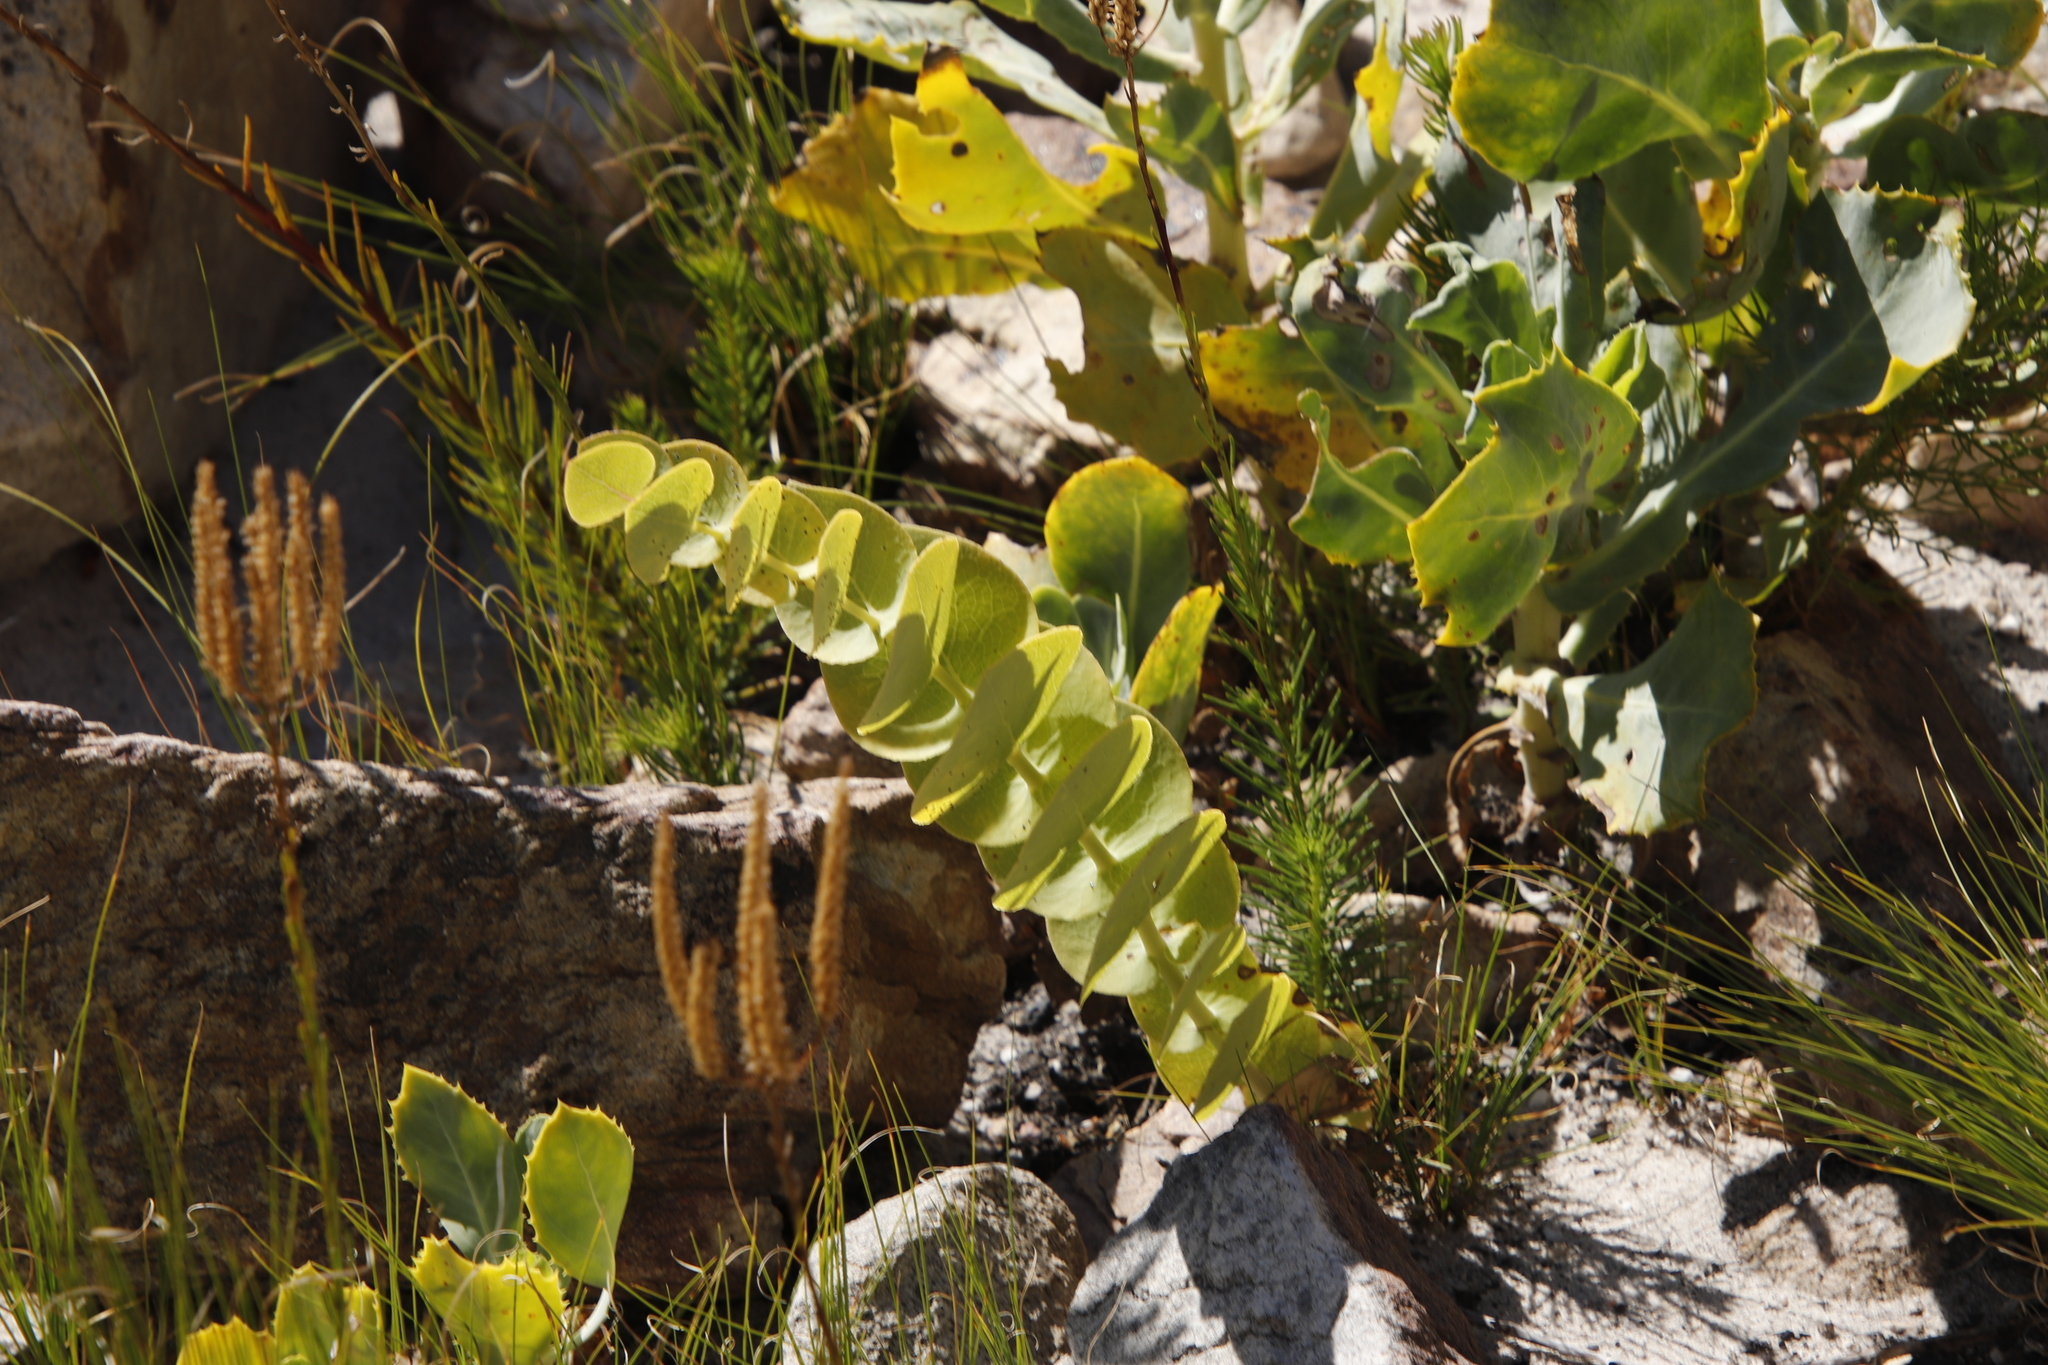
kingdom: Plantae
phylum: Tracheophyta
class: Magnoliopsida
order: Fabales
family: Fabaceae
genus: Rafnia
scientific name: Rafnia acuminata
